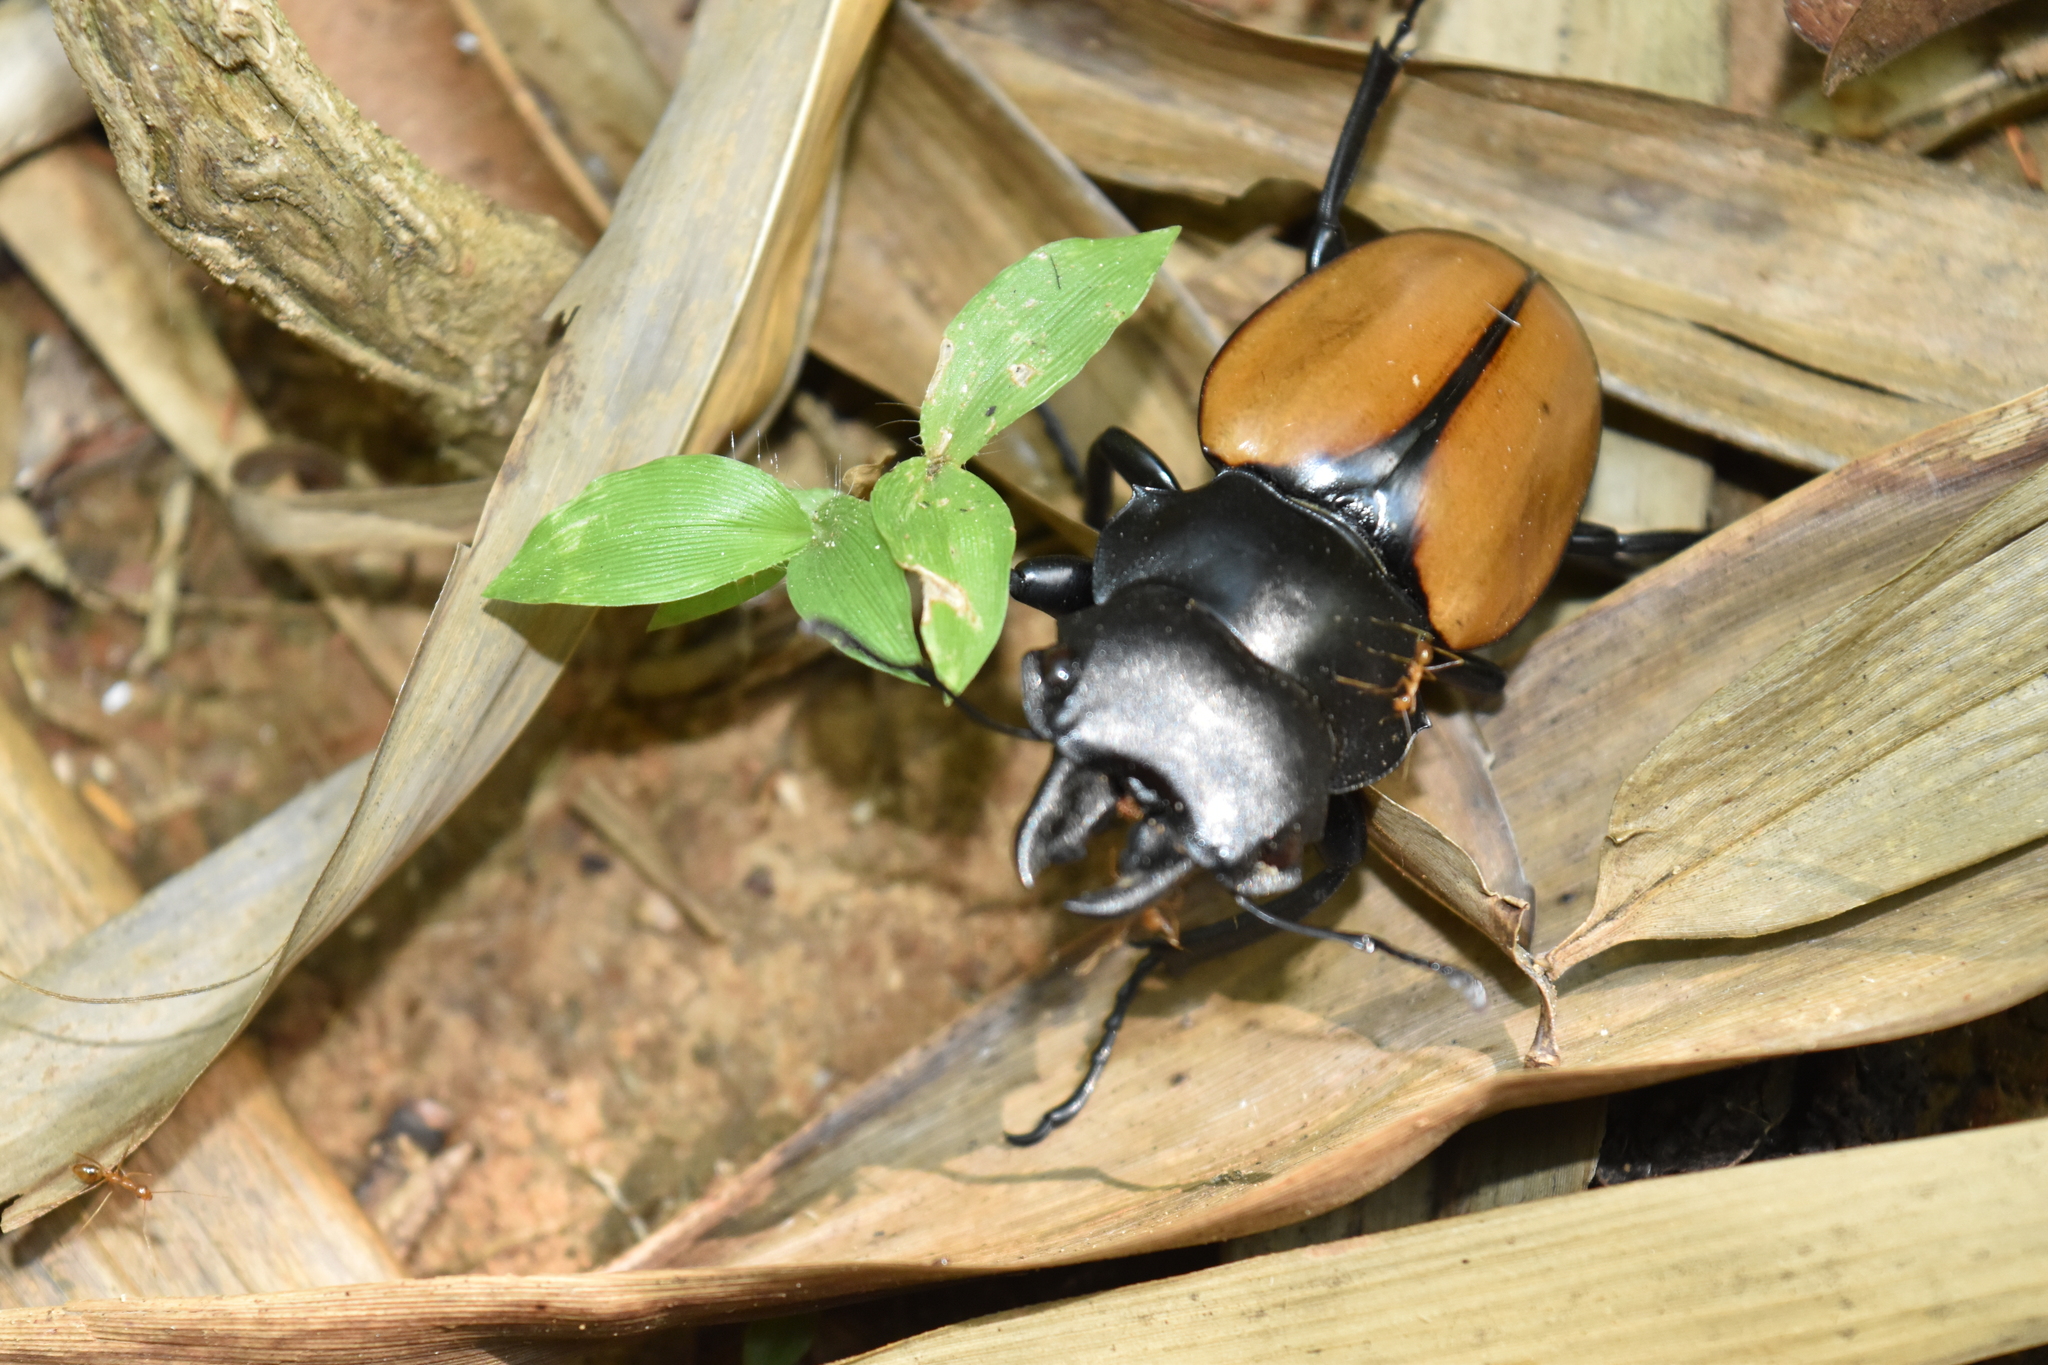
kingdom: Animalia
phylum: Arthropoda
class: Insecta
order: Coleoptera
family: Lucanidae
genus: Odontolabis
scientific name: Odontolabis mouhoti
